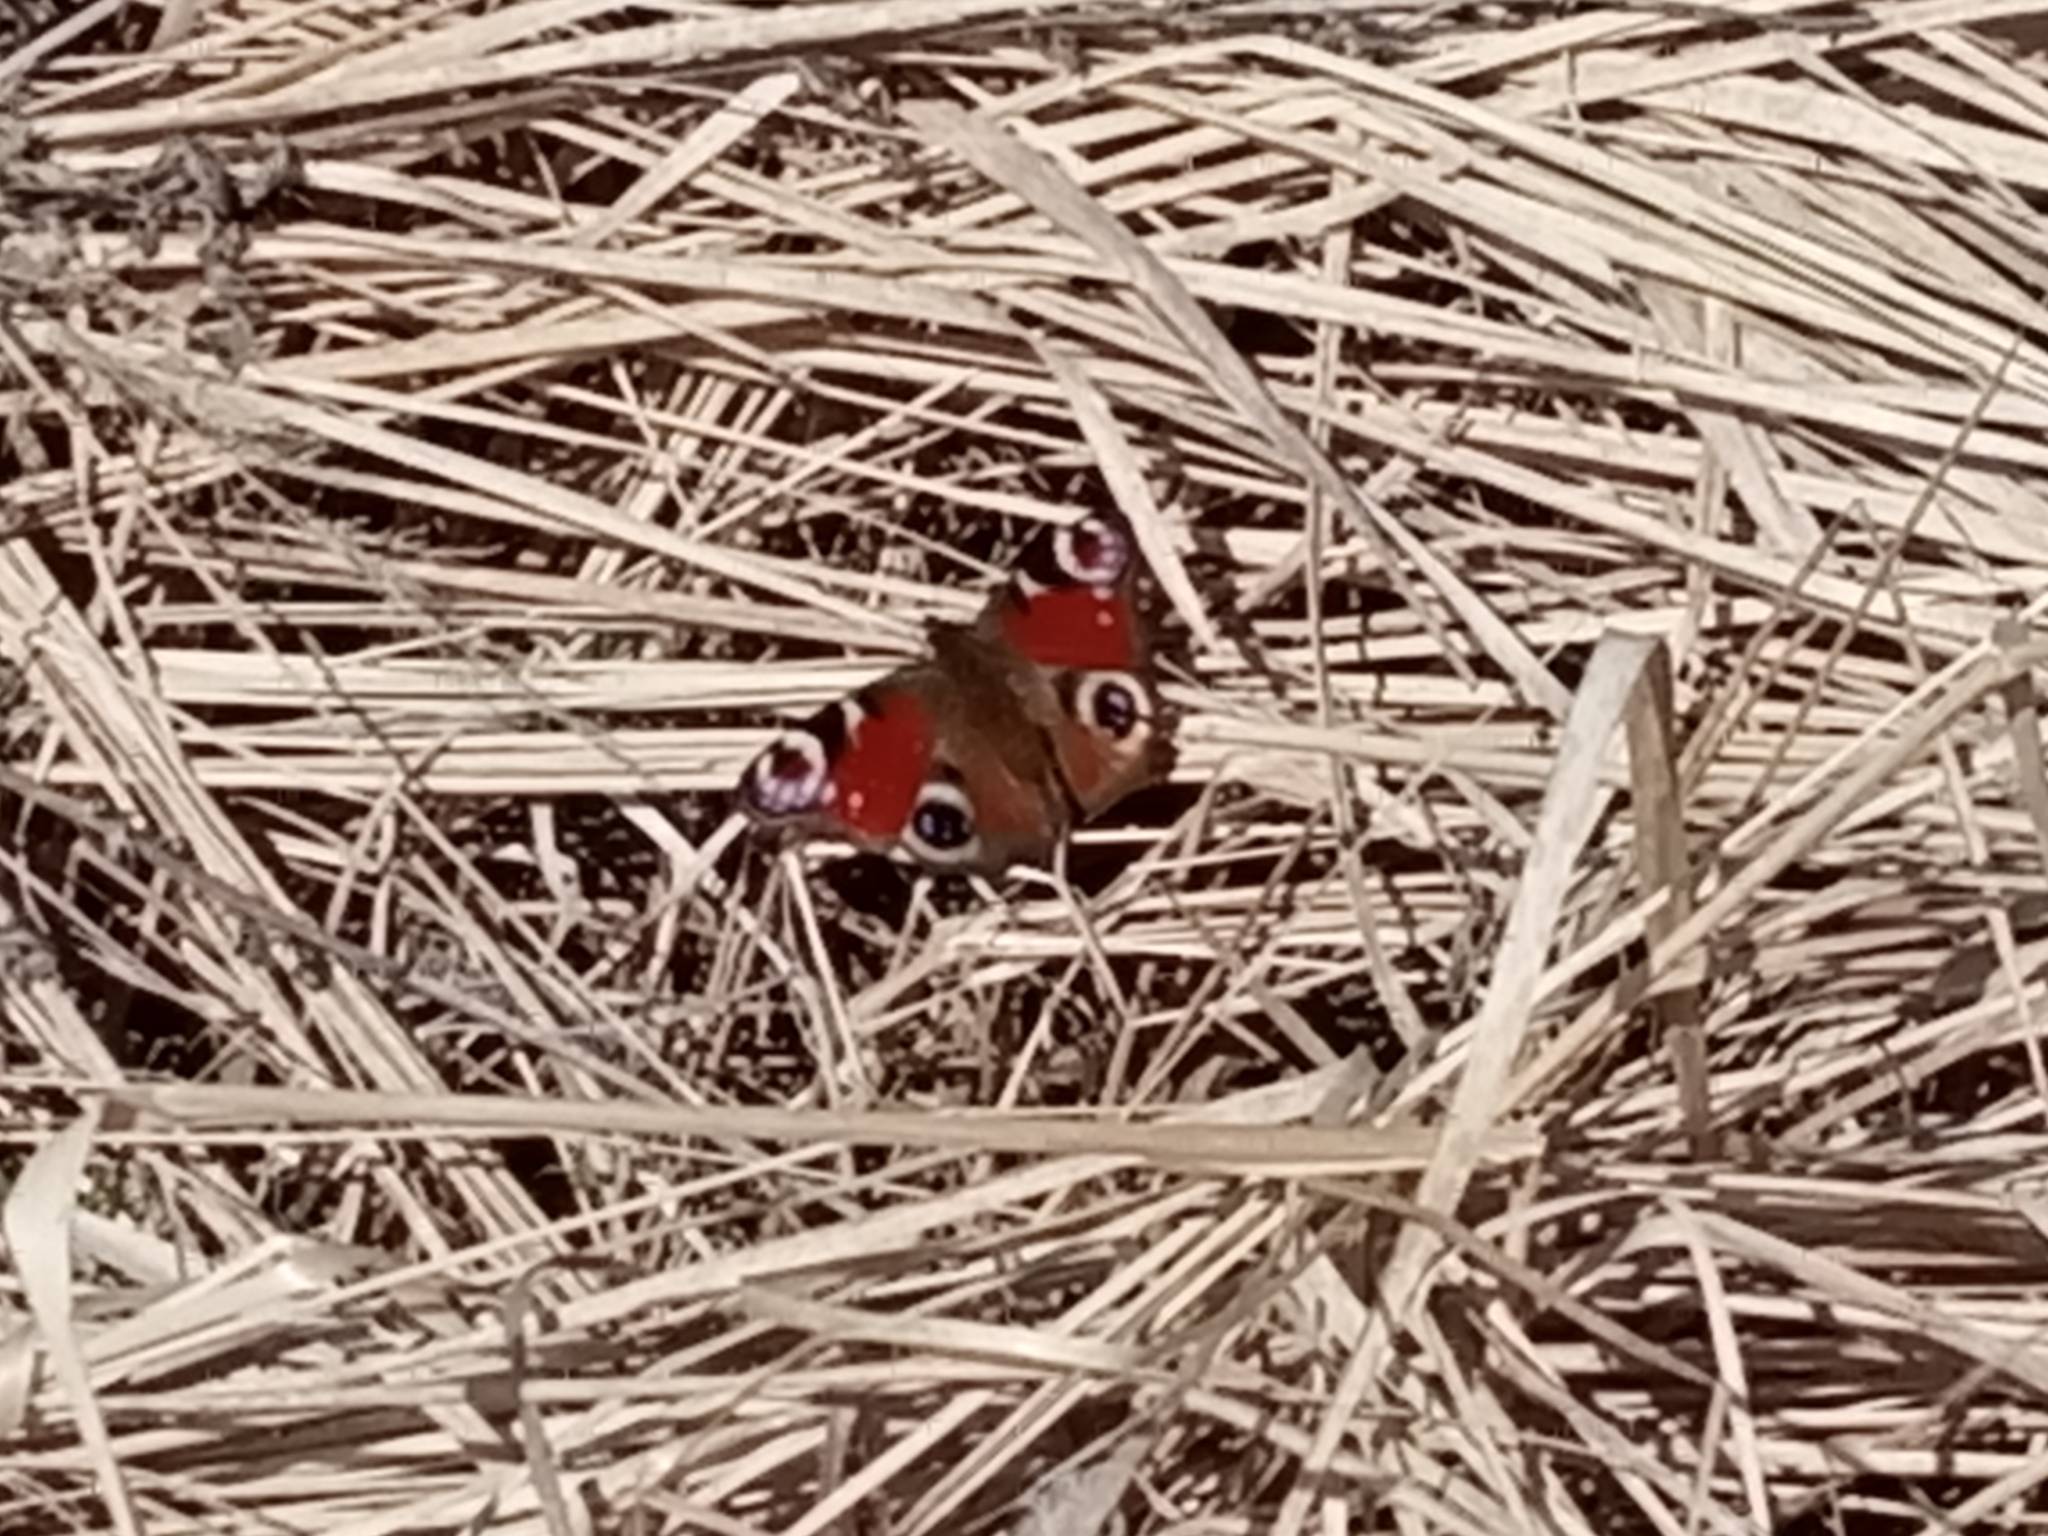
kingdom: Animalia
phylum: Arthropoda
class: Insecta
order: Lepidoptera
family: Nymphalidae
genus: Aglais
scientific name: Aglais io
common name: Peacock
